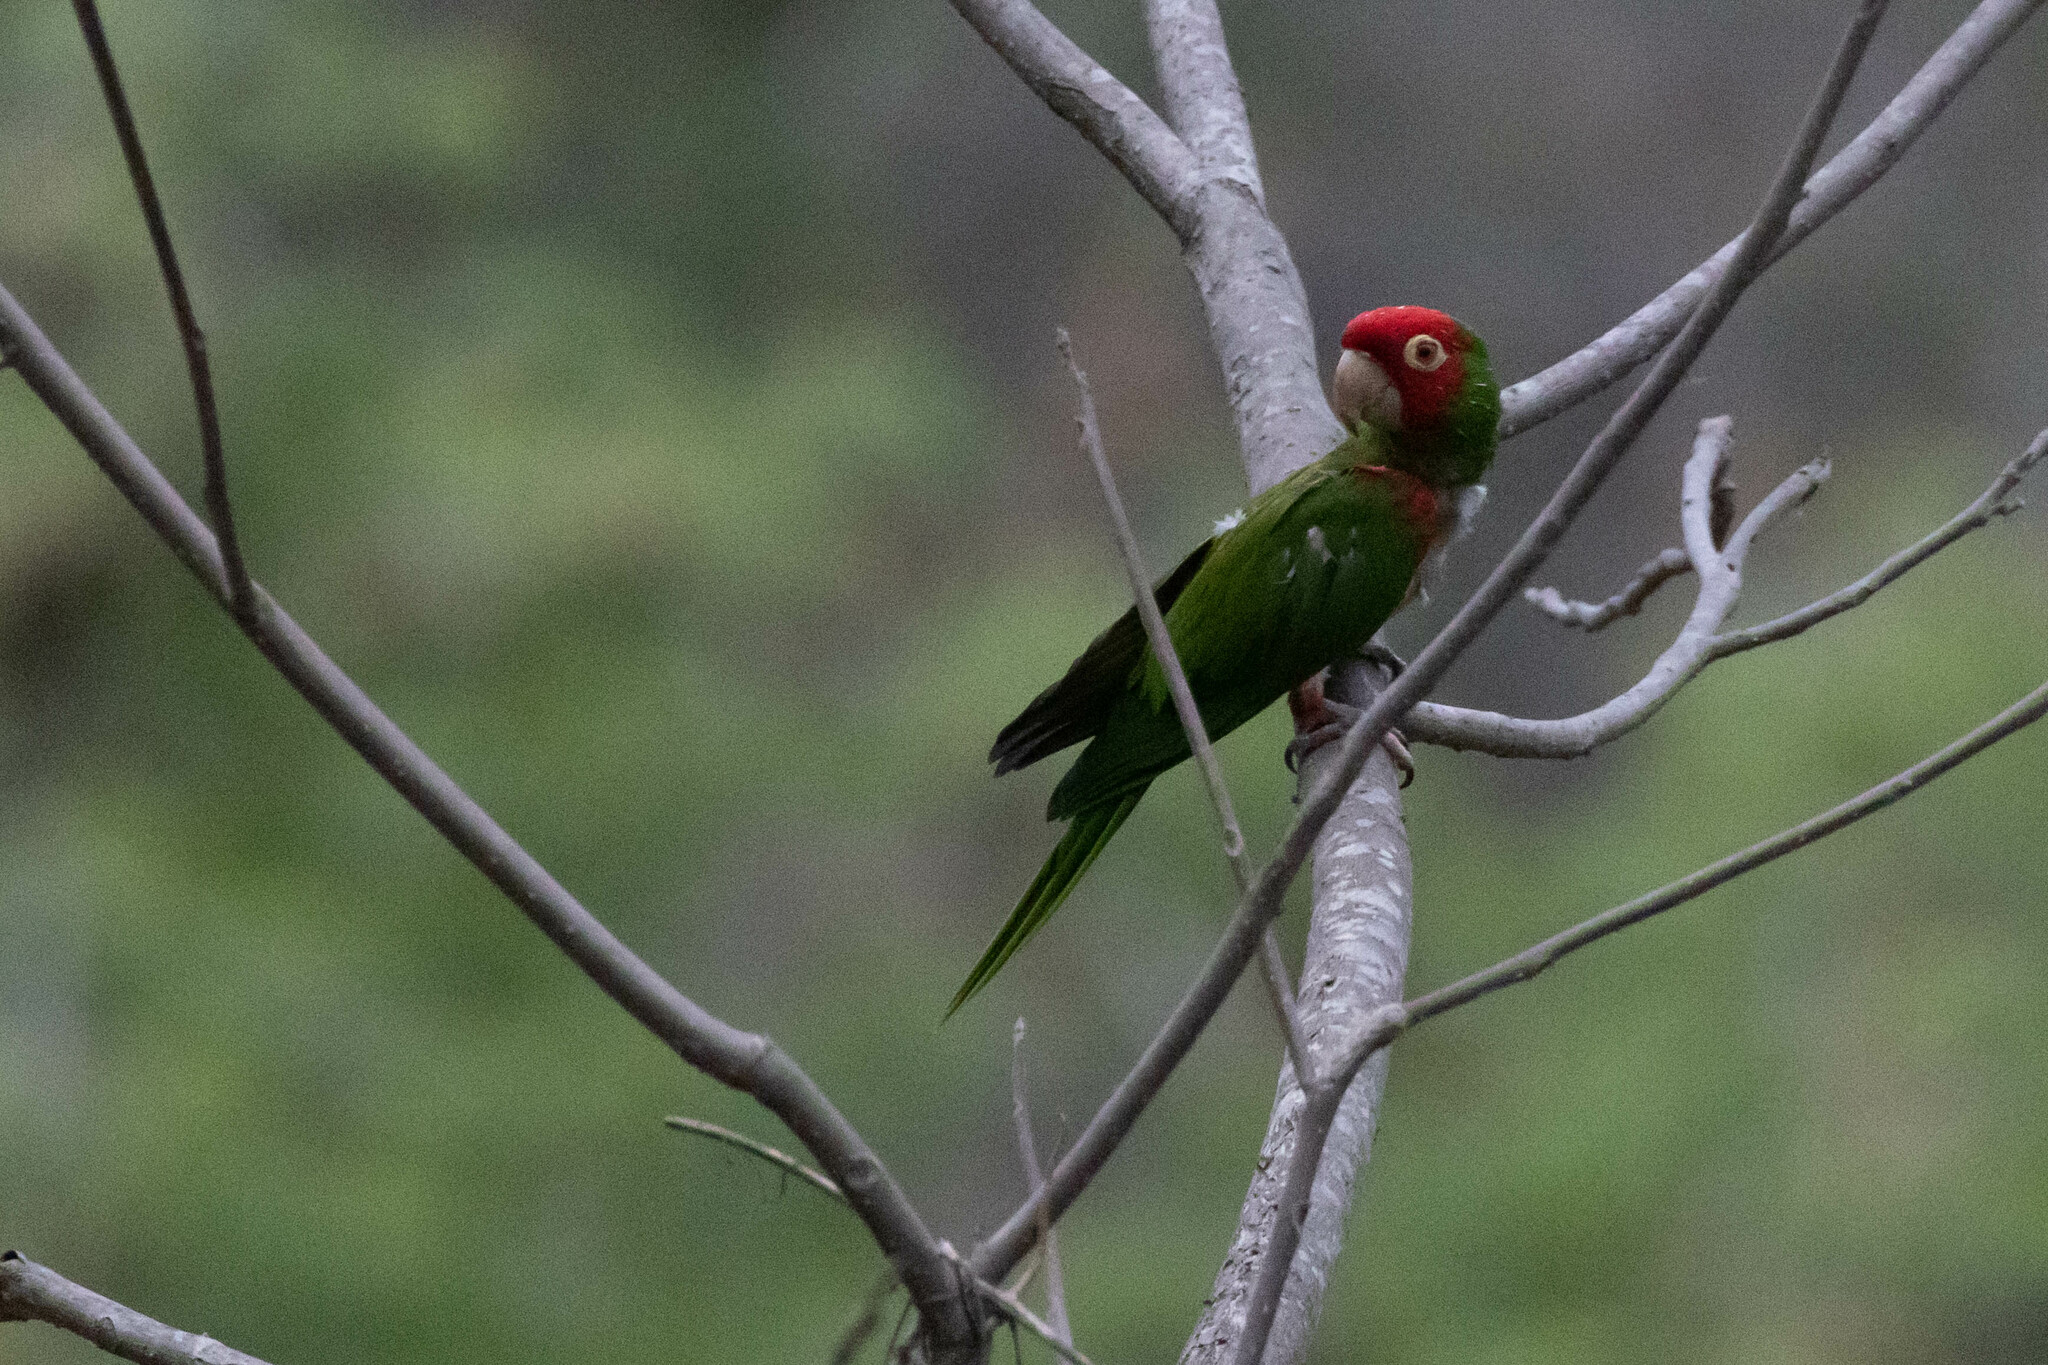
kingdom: Animalia
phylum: Chordata
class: Aves
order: Psittaciformes
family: Psittacidae
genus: Aratinga
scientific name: Aratinga erythrogenys
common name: Red-masked parakeet
